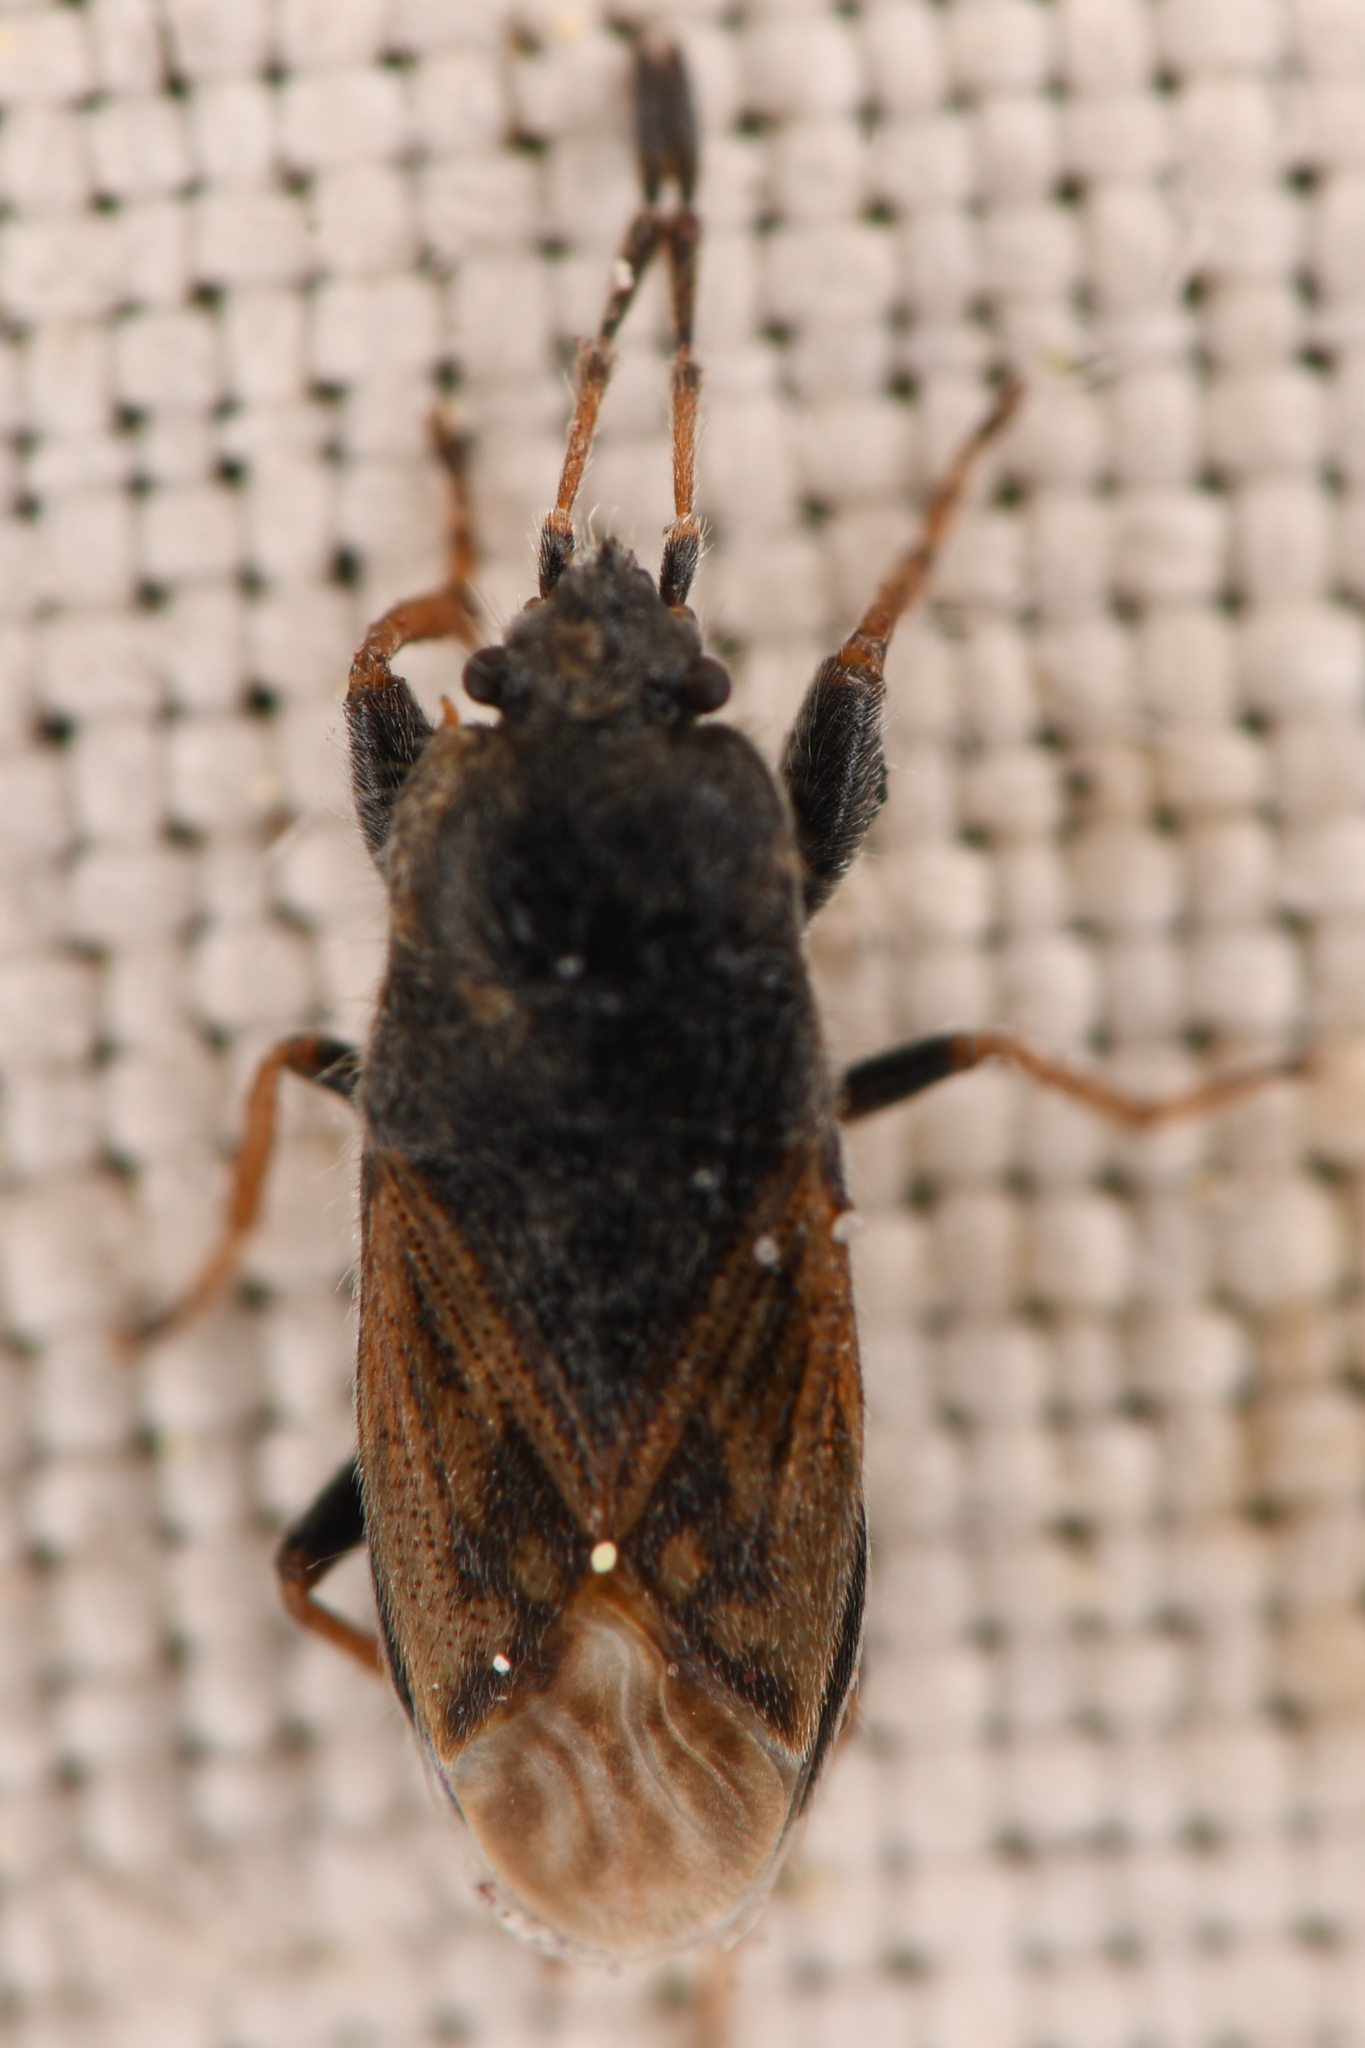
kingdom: Animalia
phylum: Arthropoda
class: Insecta
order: Hemiptera
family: Rhyparochromidae
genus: Megalonotus
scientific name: Megalonotus sabulicola
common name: Seed bug
